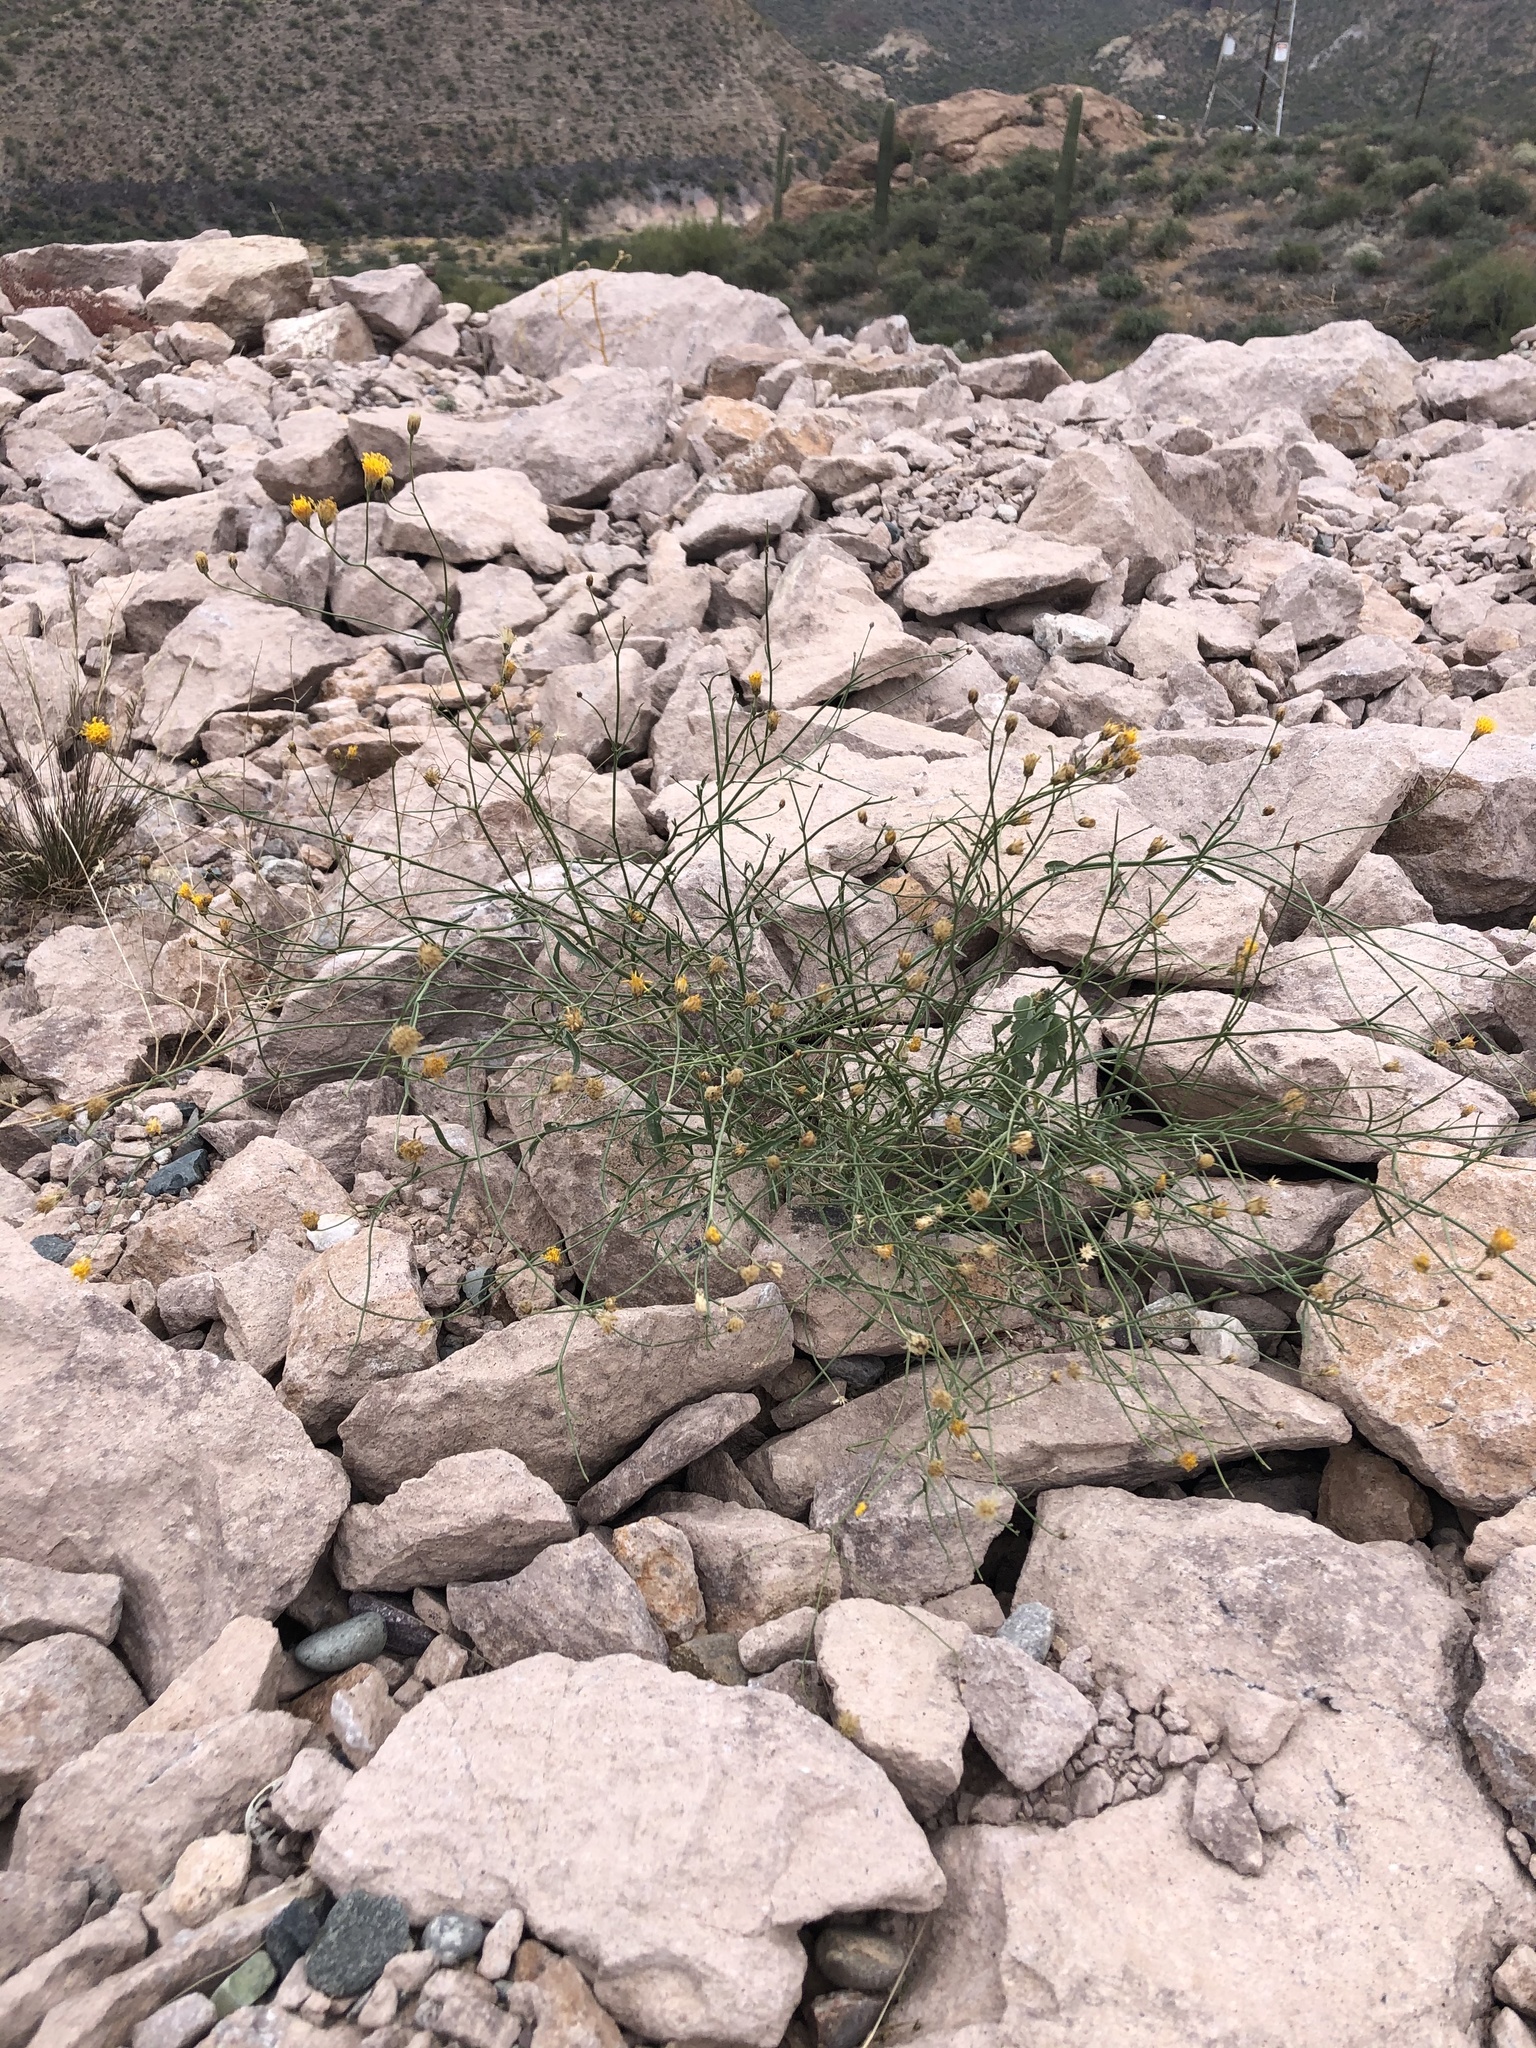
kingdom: Plantae
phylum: Tracheophyta
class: Magnoliopsida
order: Asterales
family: Asteraceae
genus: Bebbia
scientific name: Bebbia juncea
